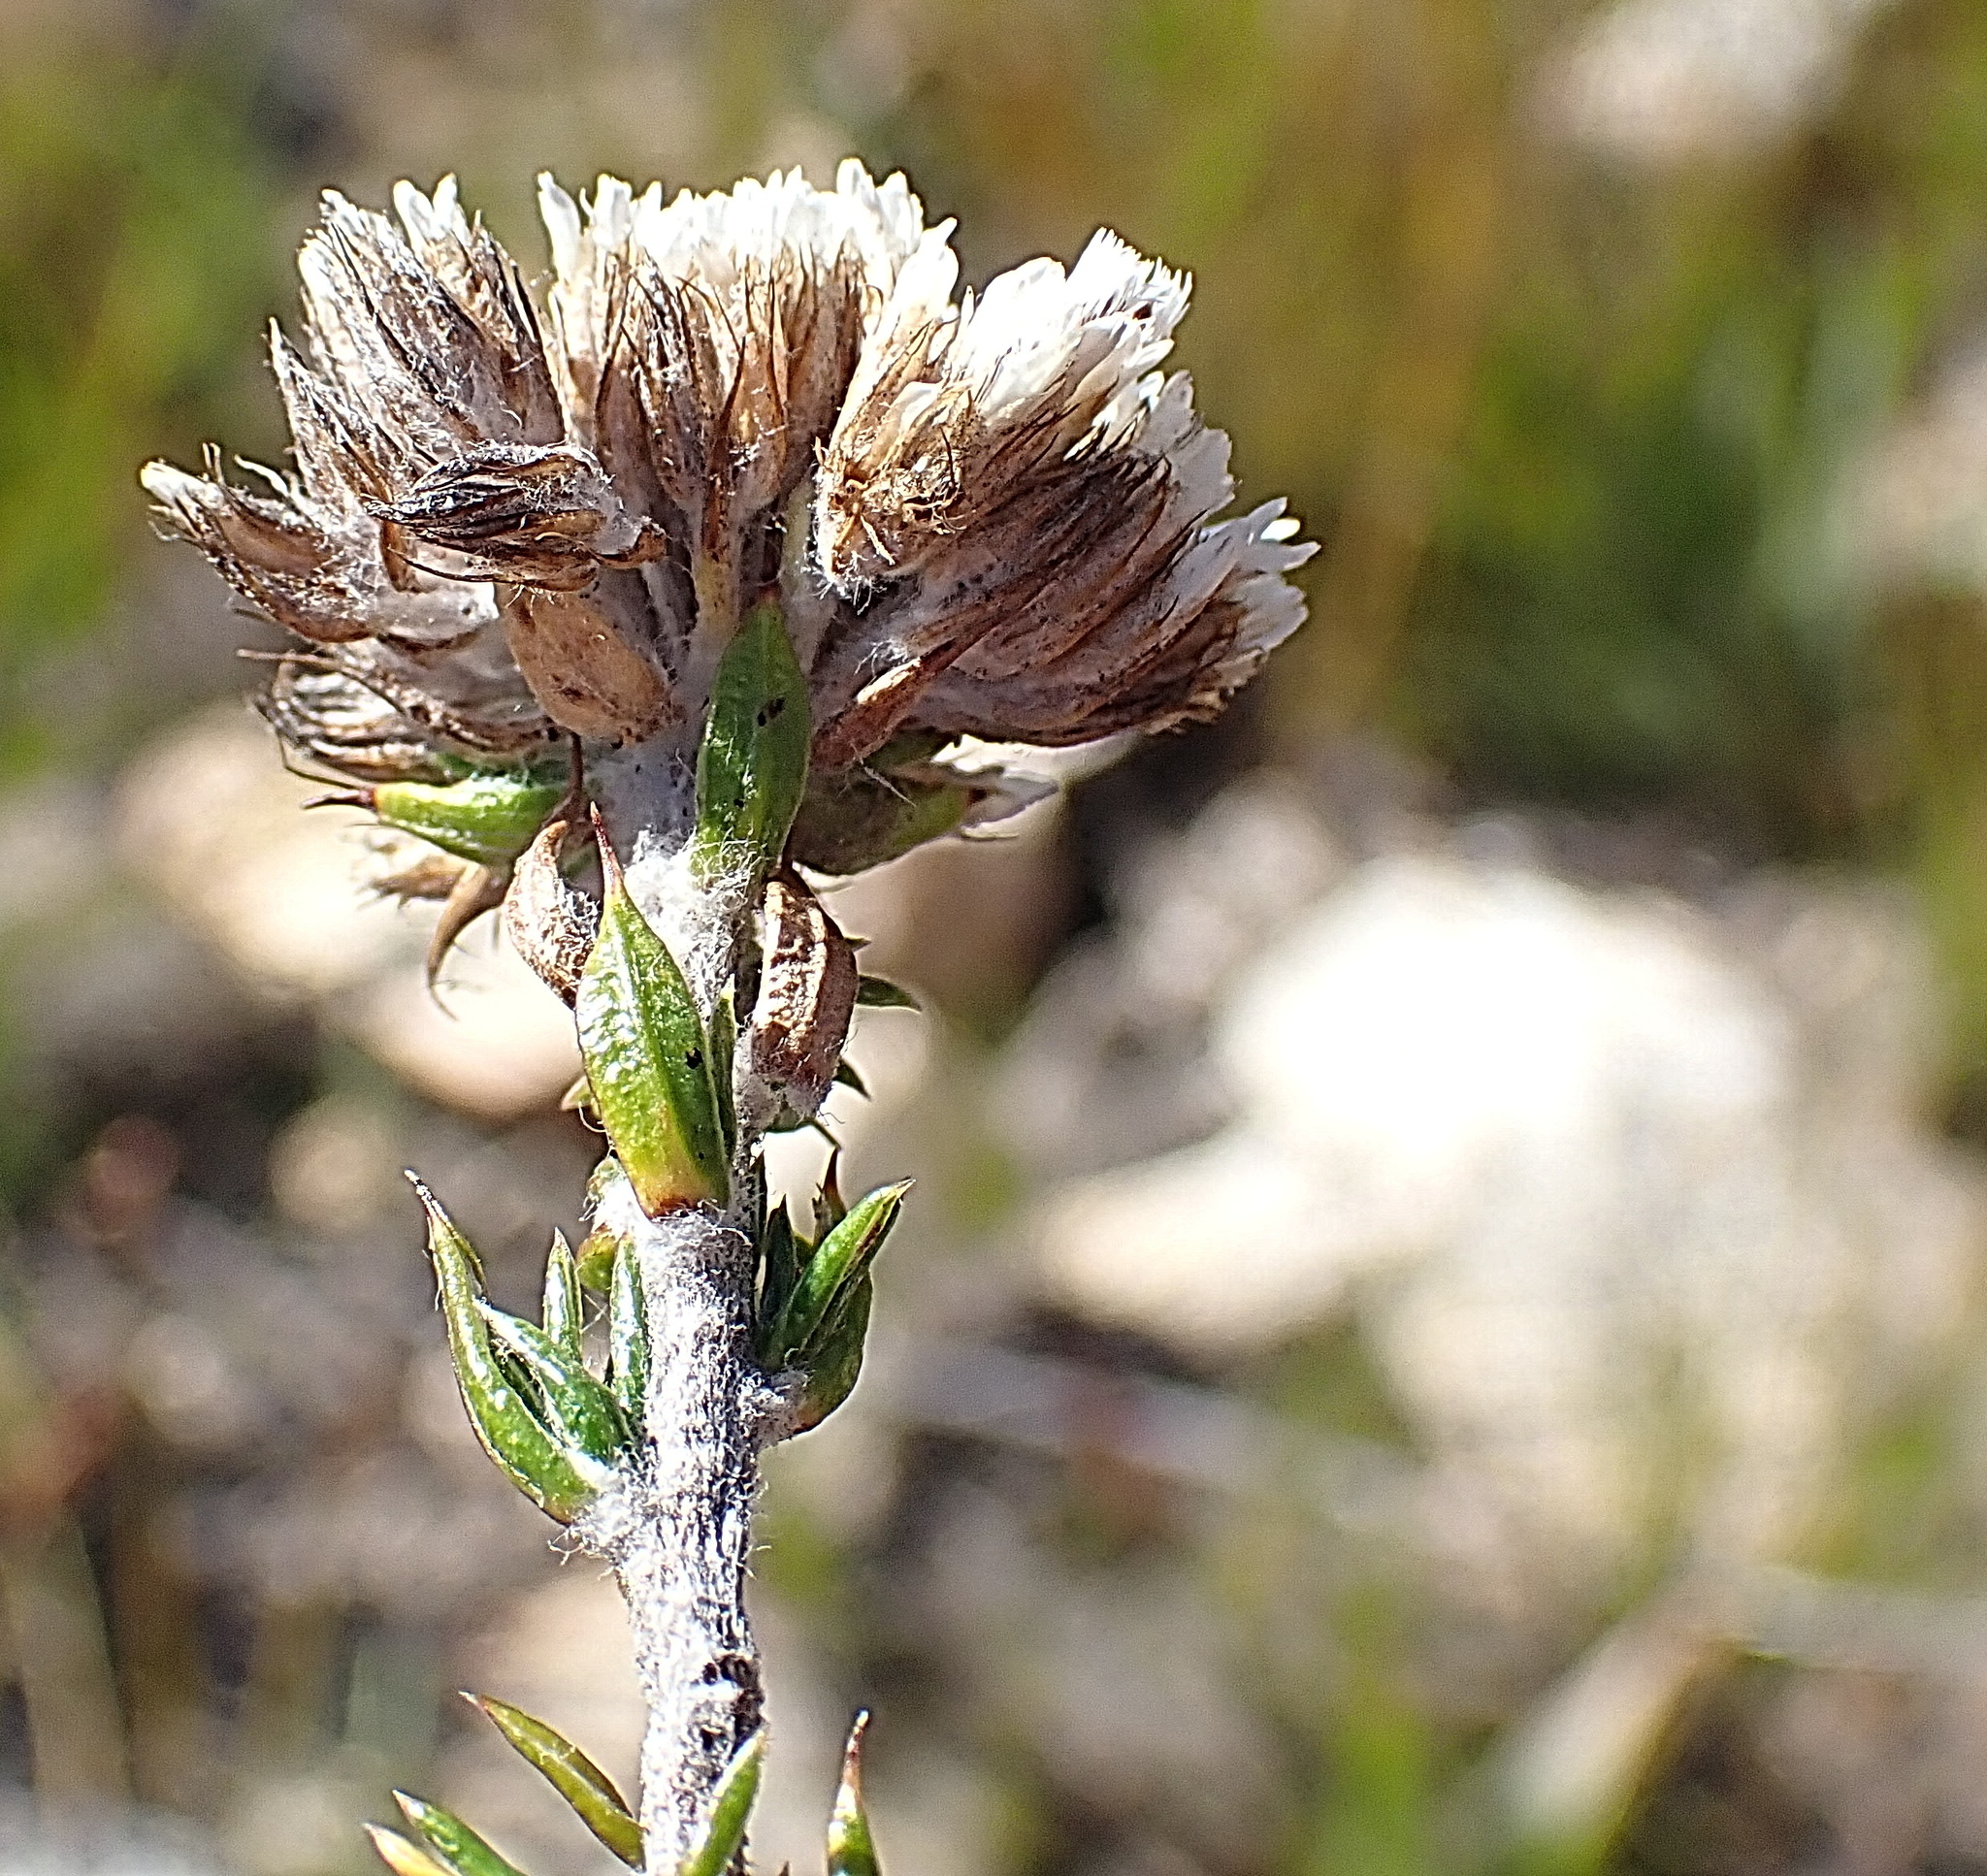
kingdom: Plantae
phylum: Tracheophyta
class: Magnoliopsida
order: Asterales
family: Asteraceae
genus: Metalasia
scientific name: Metalasia pungens
